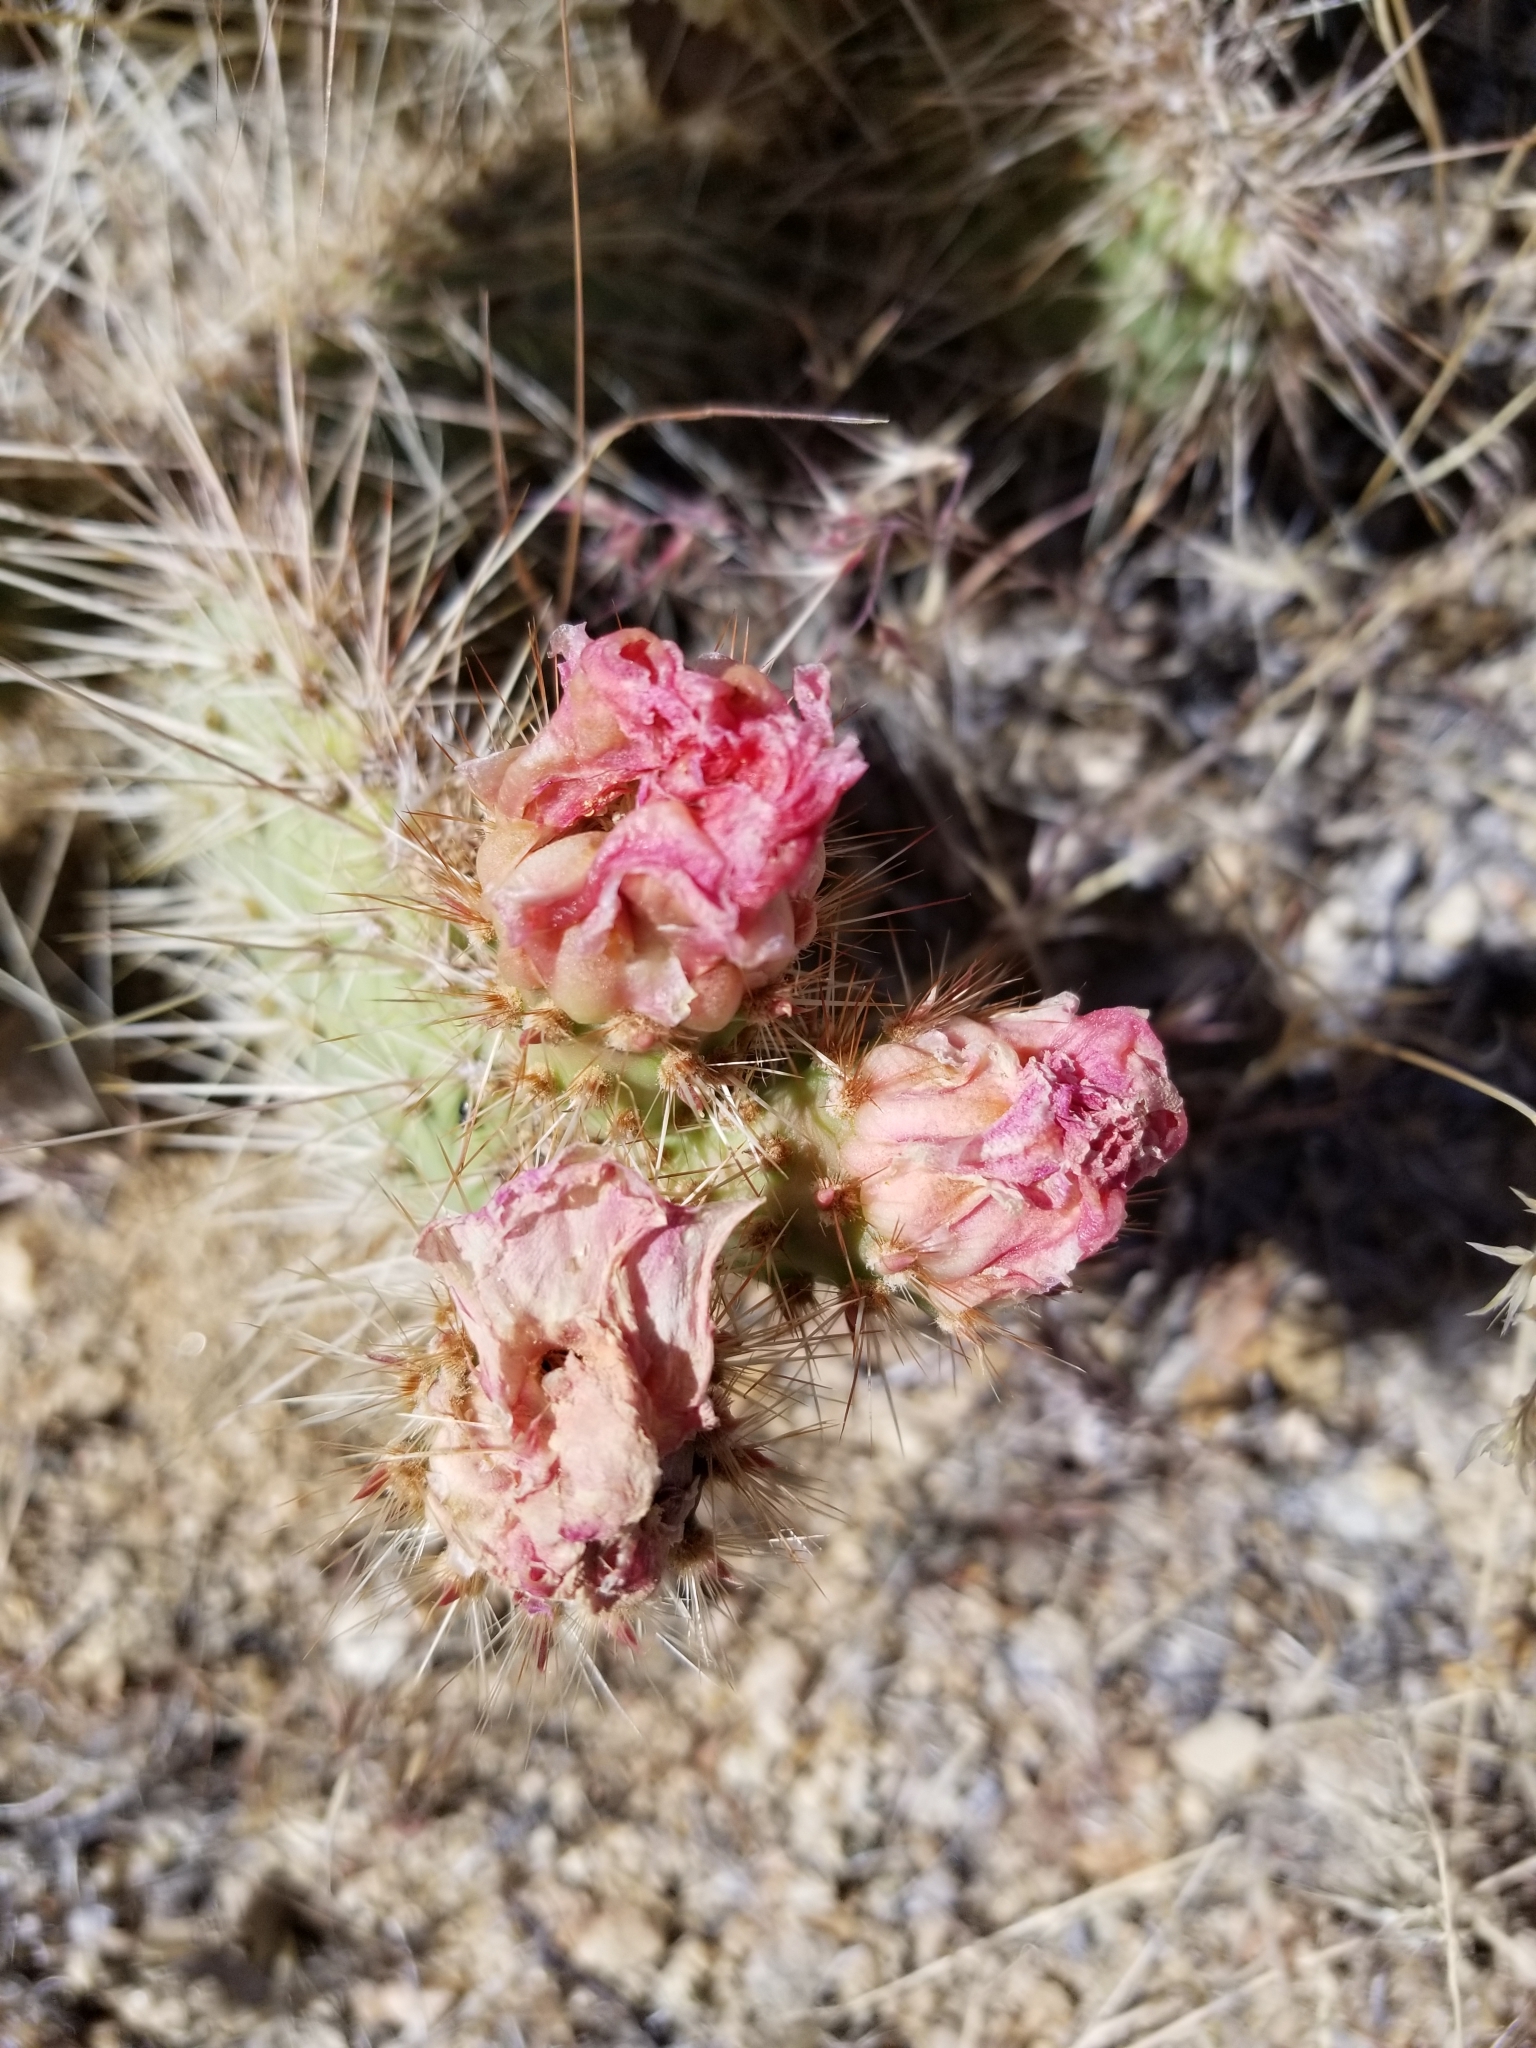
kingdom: Plantae
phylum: Tracheophyta
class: Magnoliopsida
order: Caryophyllales
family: Cactaceae
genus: Opuntia
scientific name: Opuntia polyacantha
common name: Plains prickly-pear
